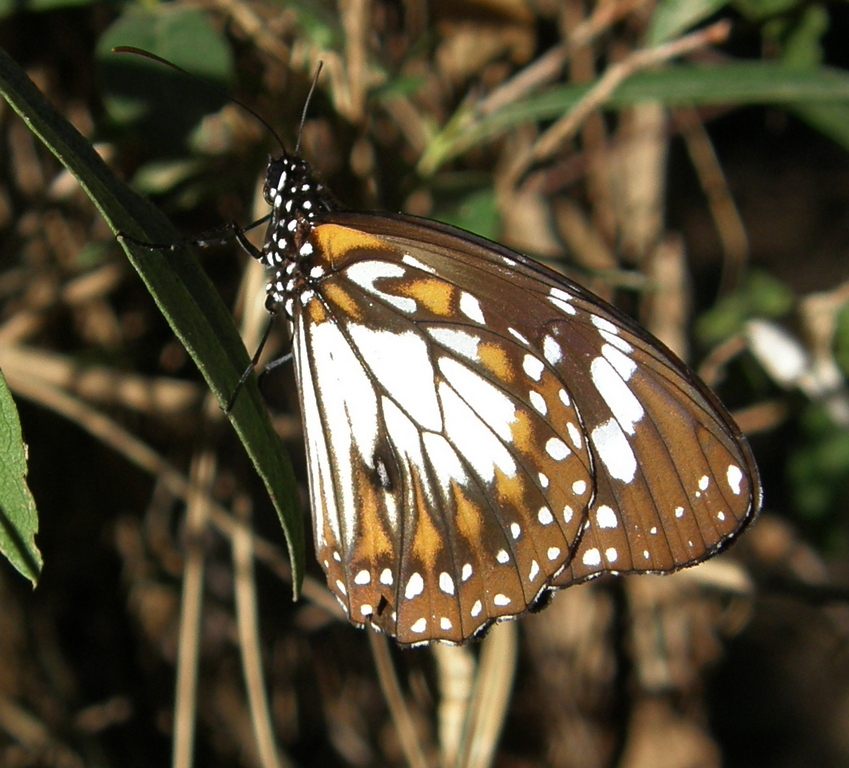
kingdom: Animalia
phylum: Arthropoda
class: Insecta
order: Lepidoptera
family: Nymphalidae
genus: Danaus
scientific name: Danaus affinis
